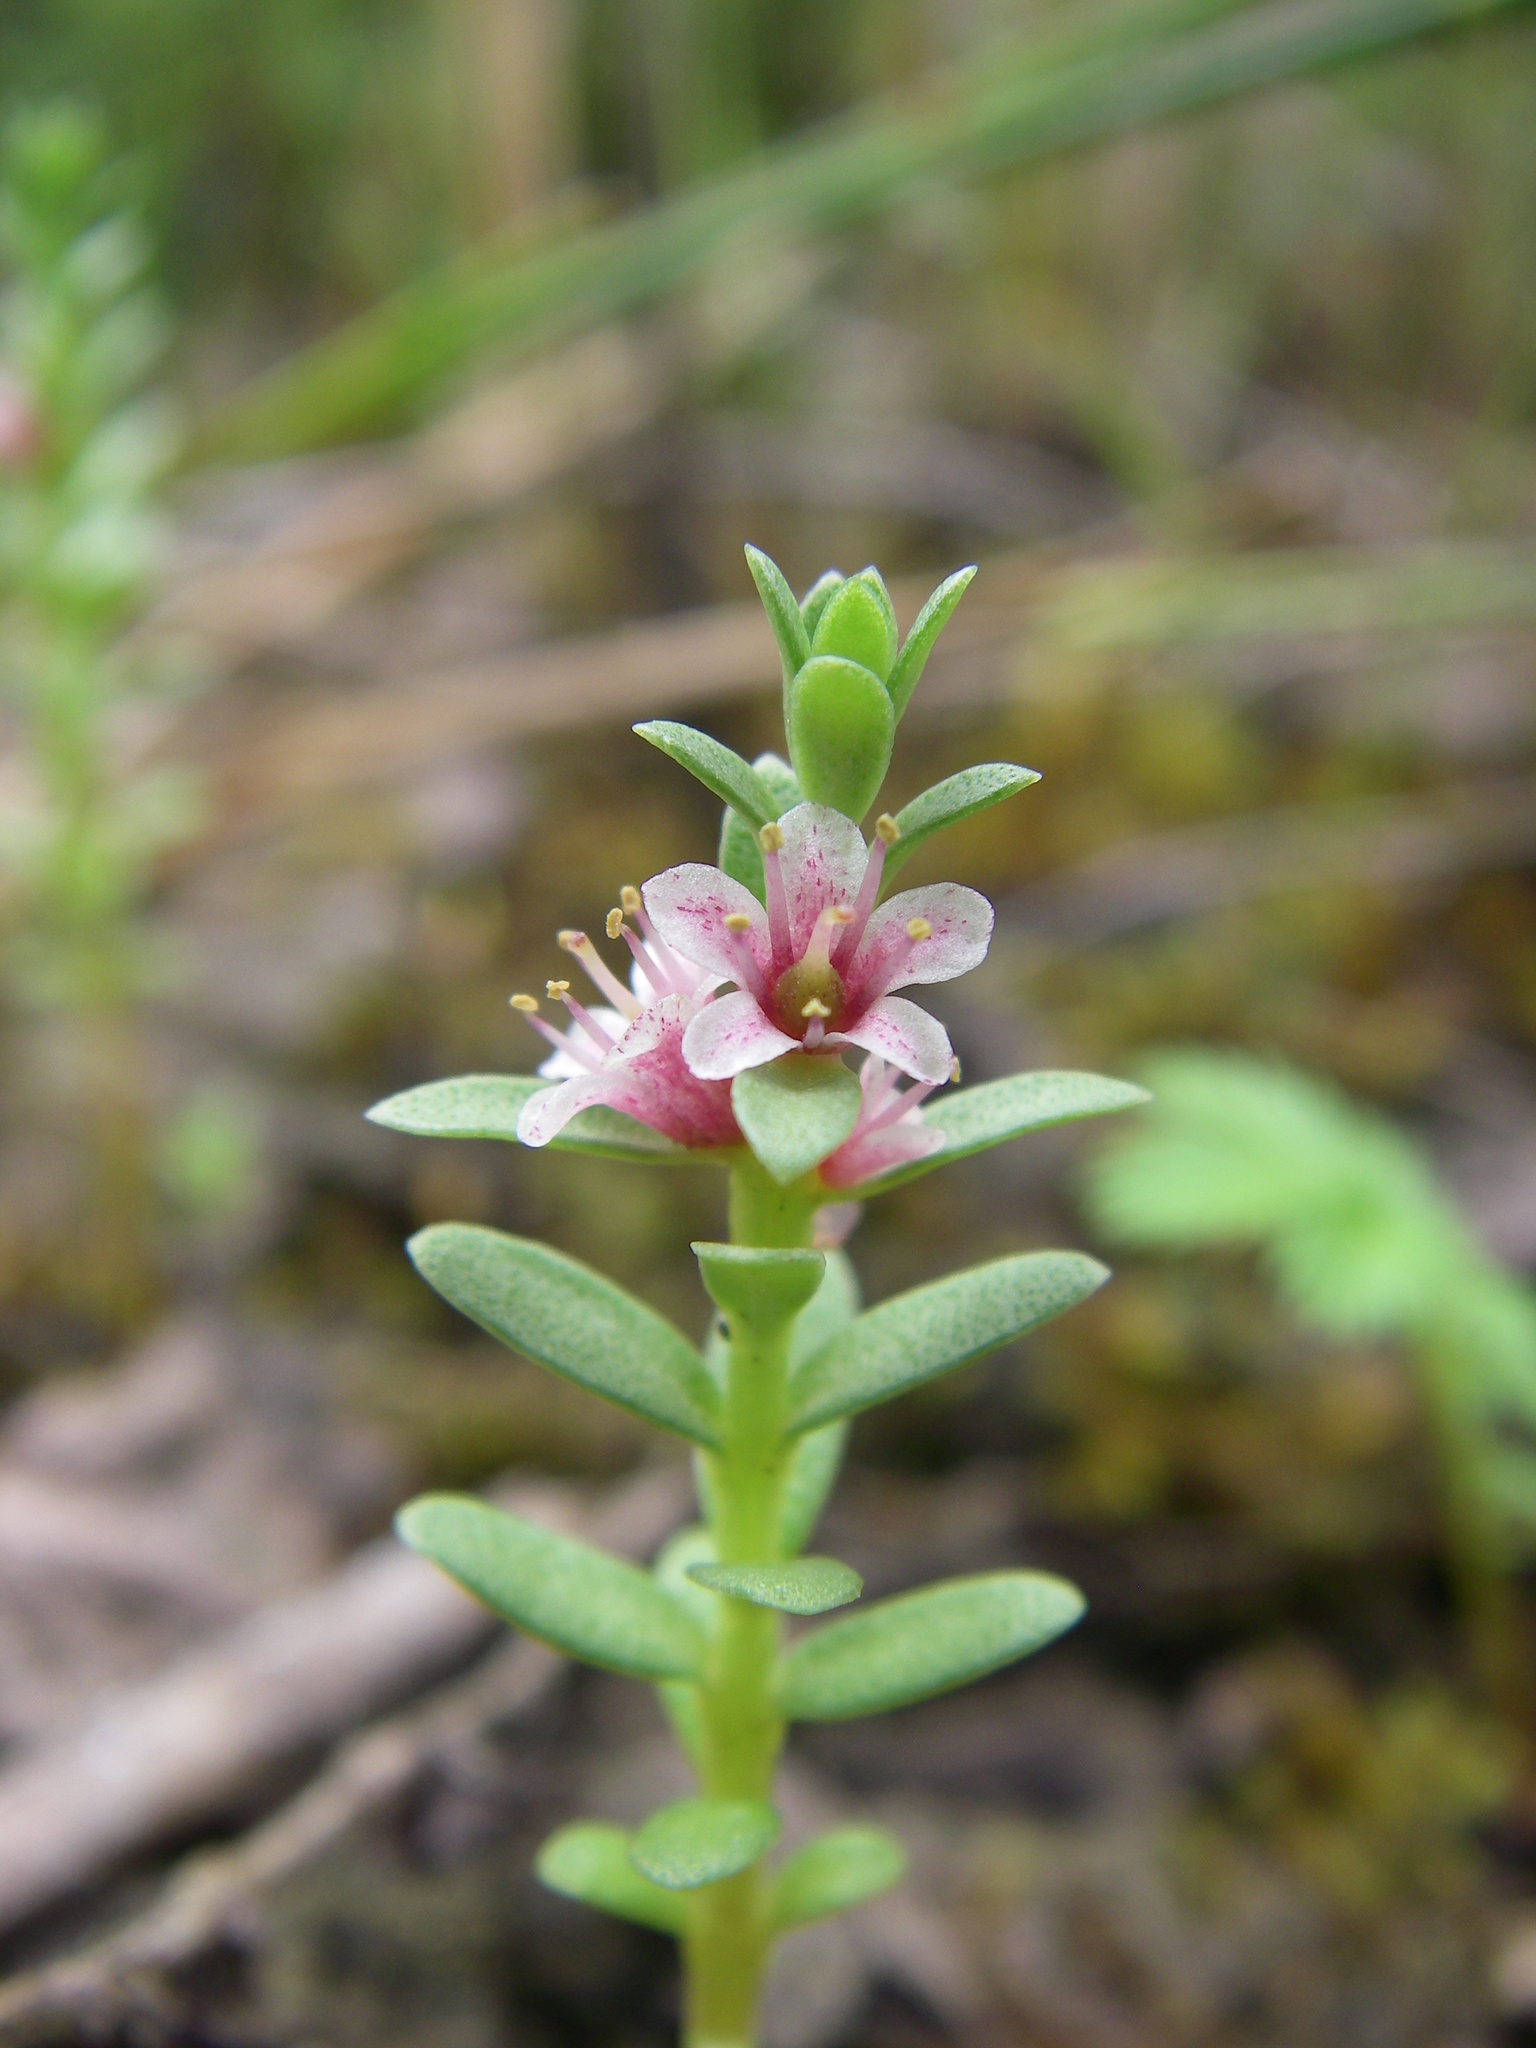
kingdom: Plantae
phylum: Tracheophyta
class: Magnoliopsida
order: Ericales
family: Primulaceae
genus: Lysimachia
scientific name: Lysimachia maritima
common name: Sea milkwort
